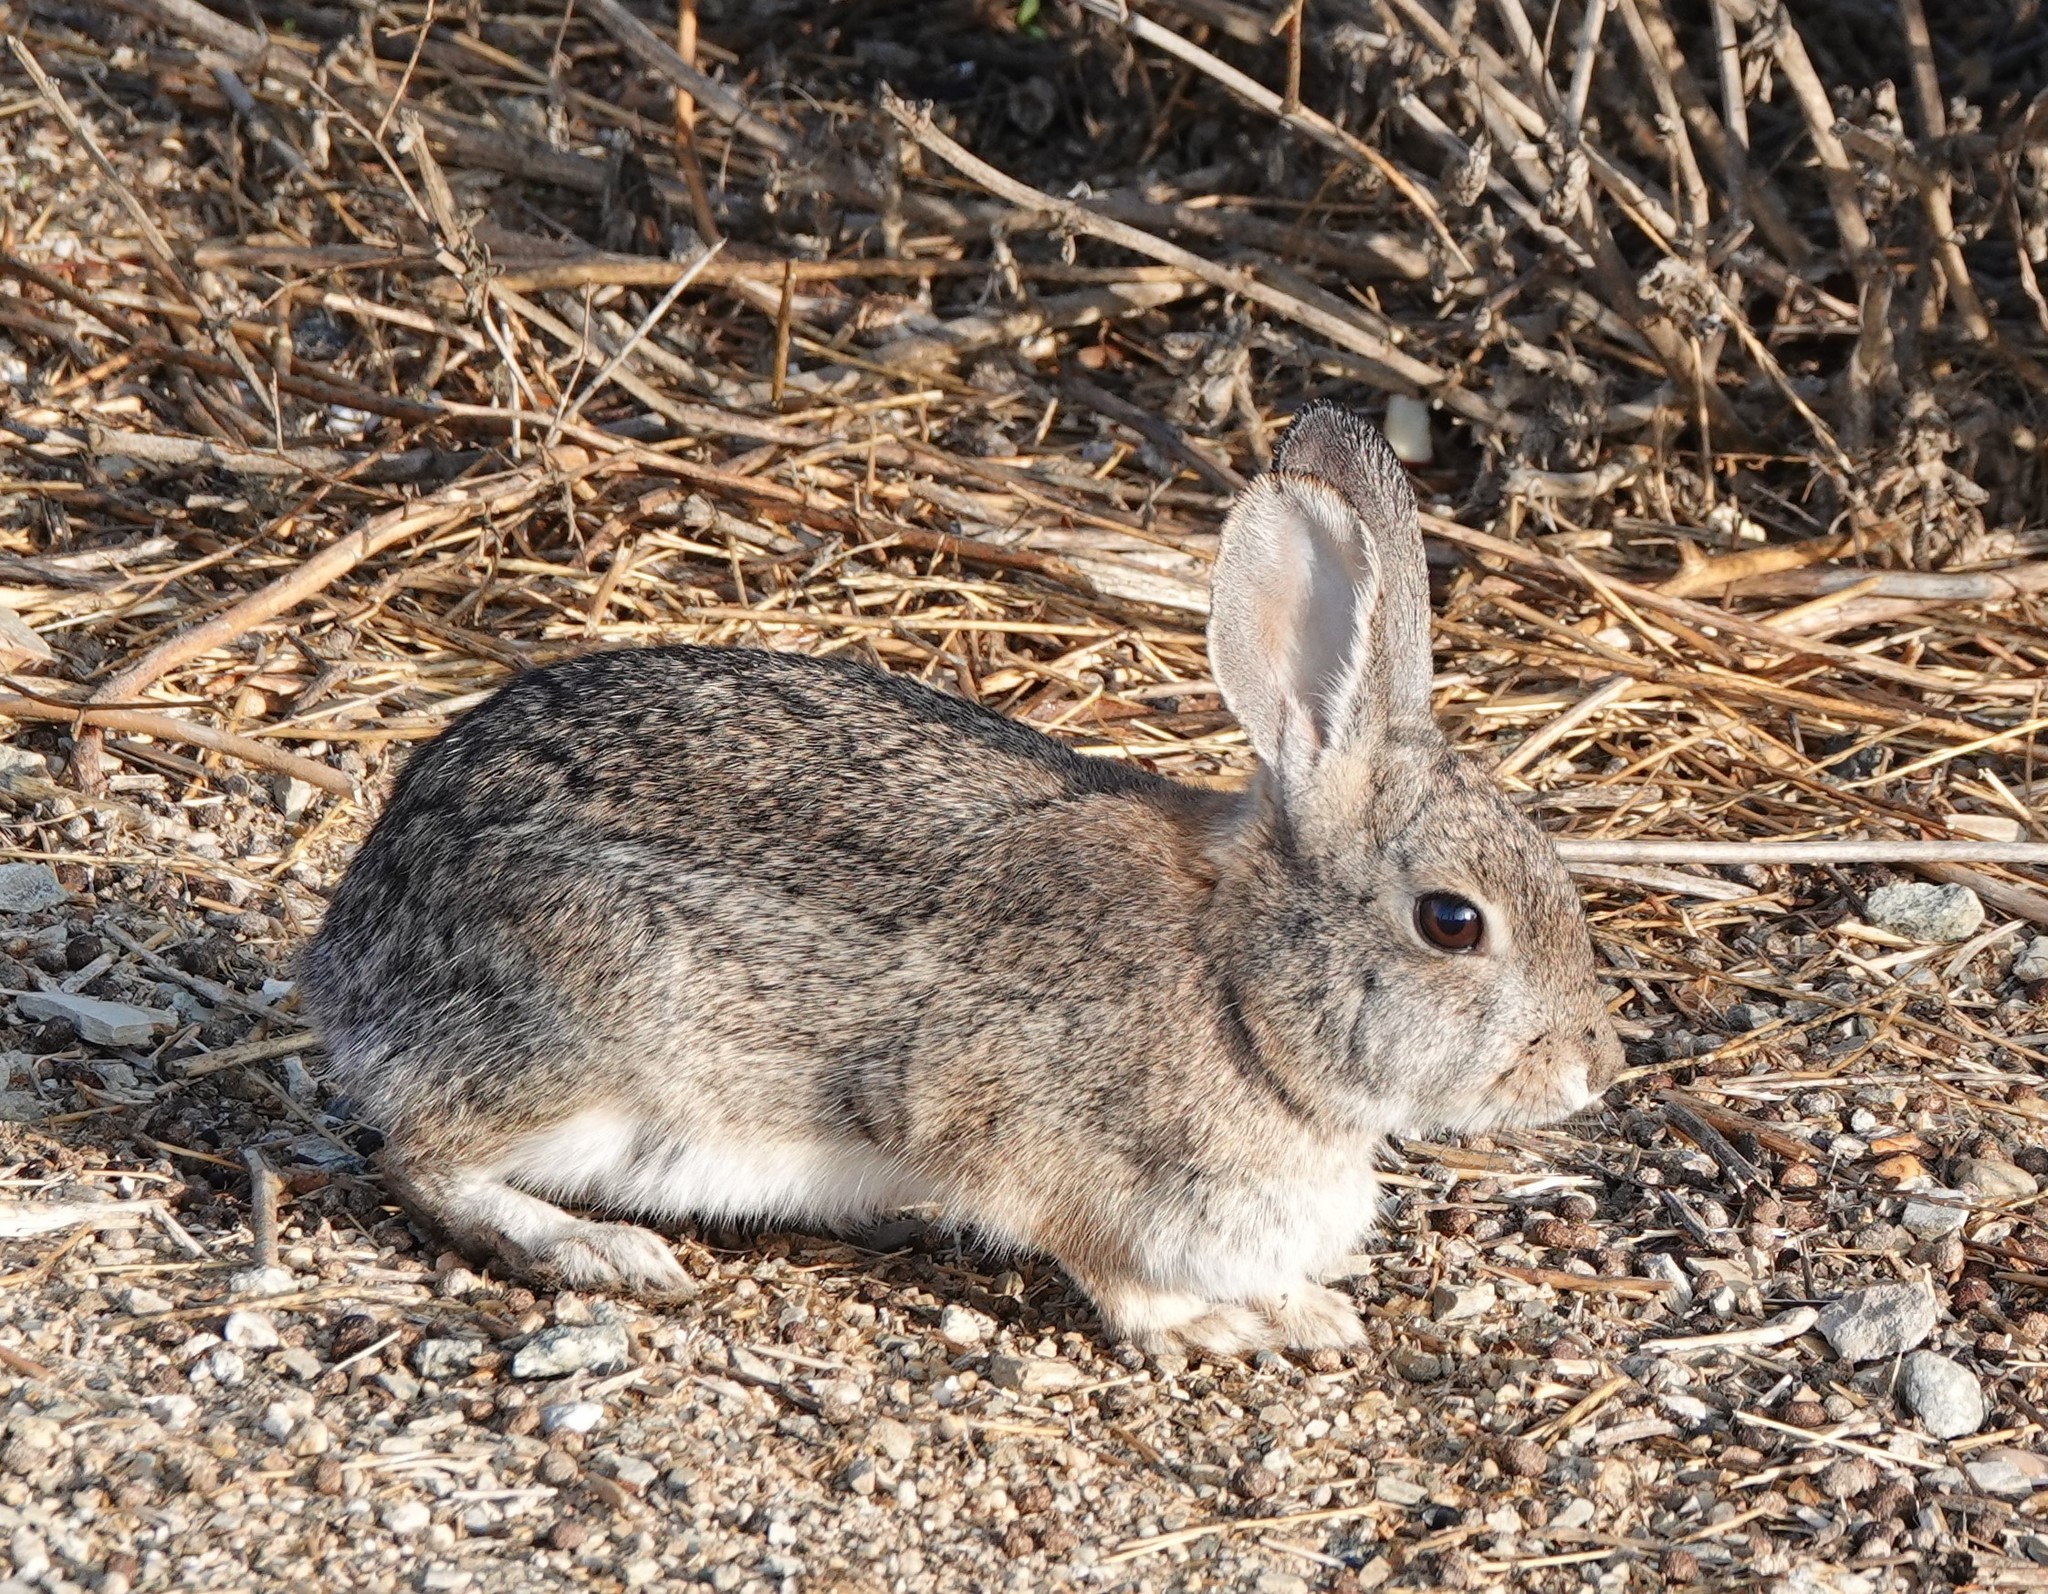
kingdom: Animalia
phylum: Chordata
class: Mammalia
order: Lagomorpha
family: Leporidae
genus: Sylvilagus
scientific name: Sylvilagus audubonii
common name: Desert cottontail
